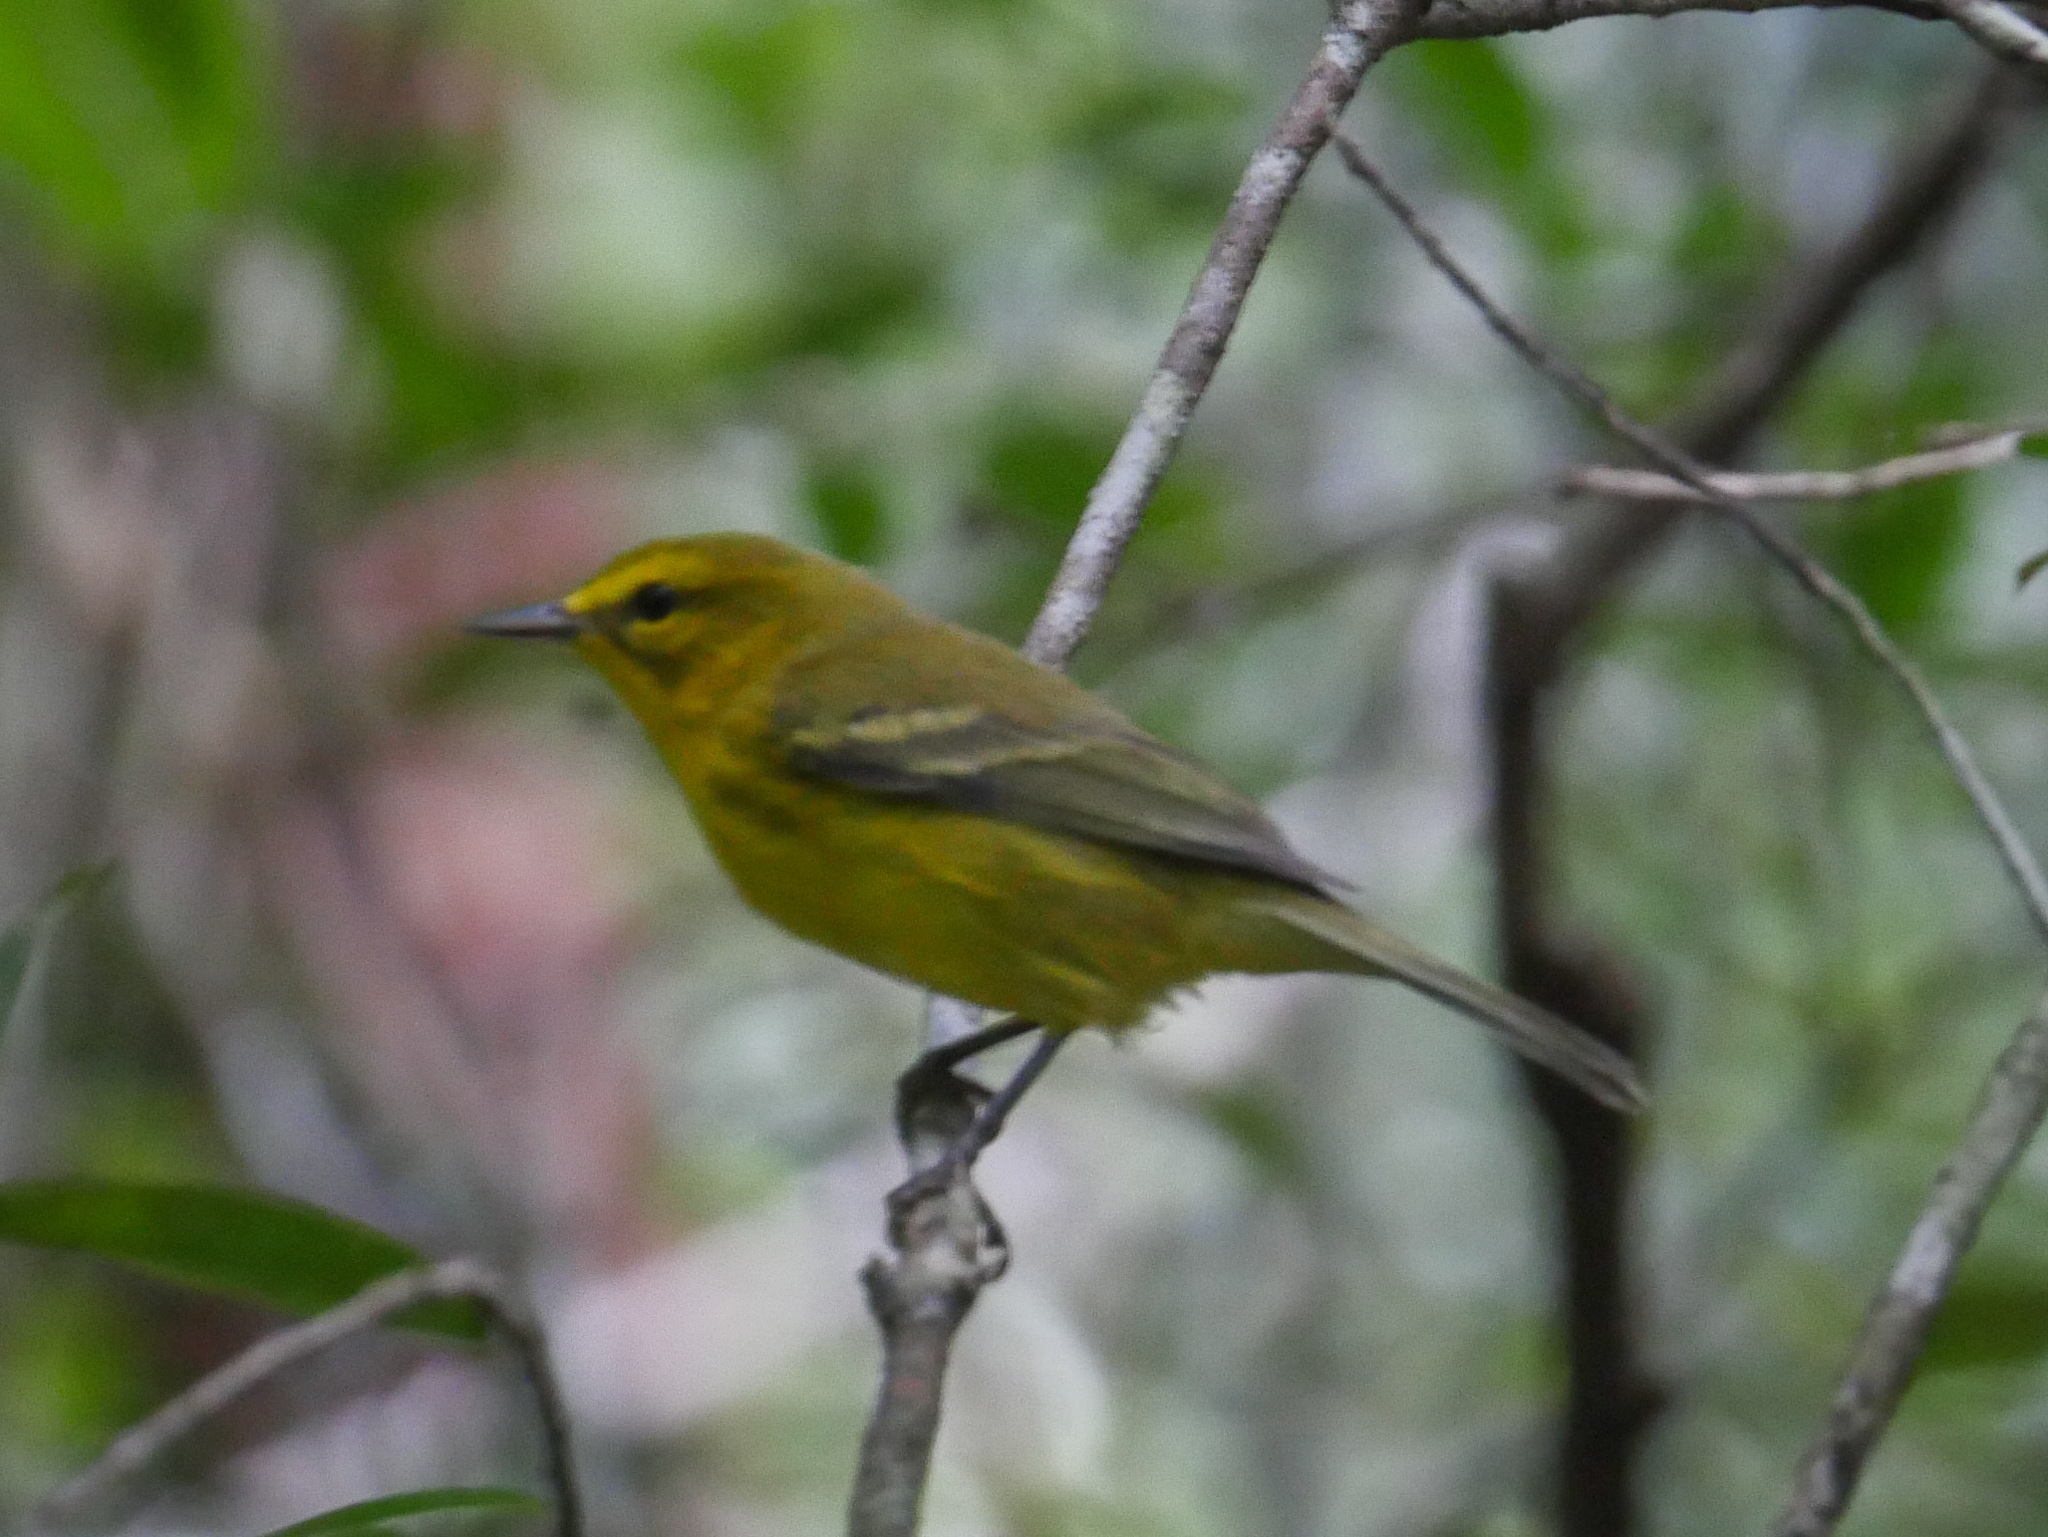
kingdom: Animalia
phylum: Chordata
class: Aves
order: Passeriformes
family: Parulidae
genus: Setophaga
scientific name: Setophaga vitellina
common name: Vitelline warbler
